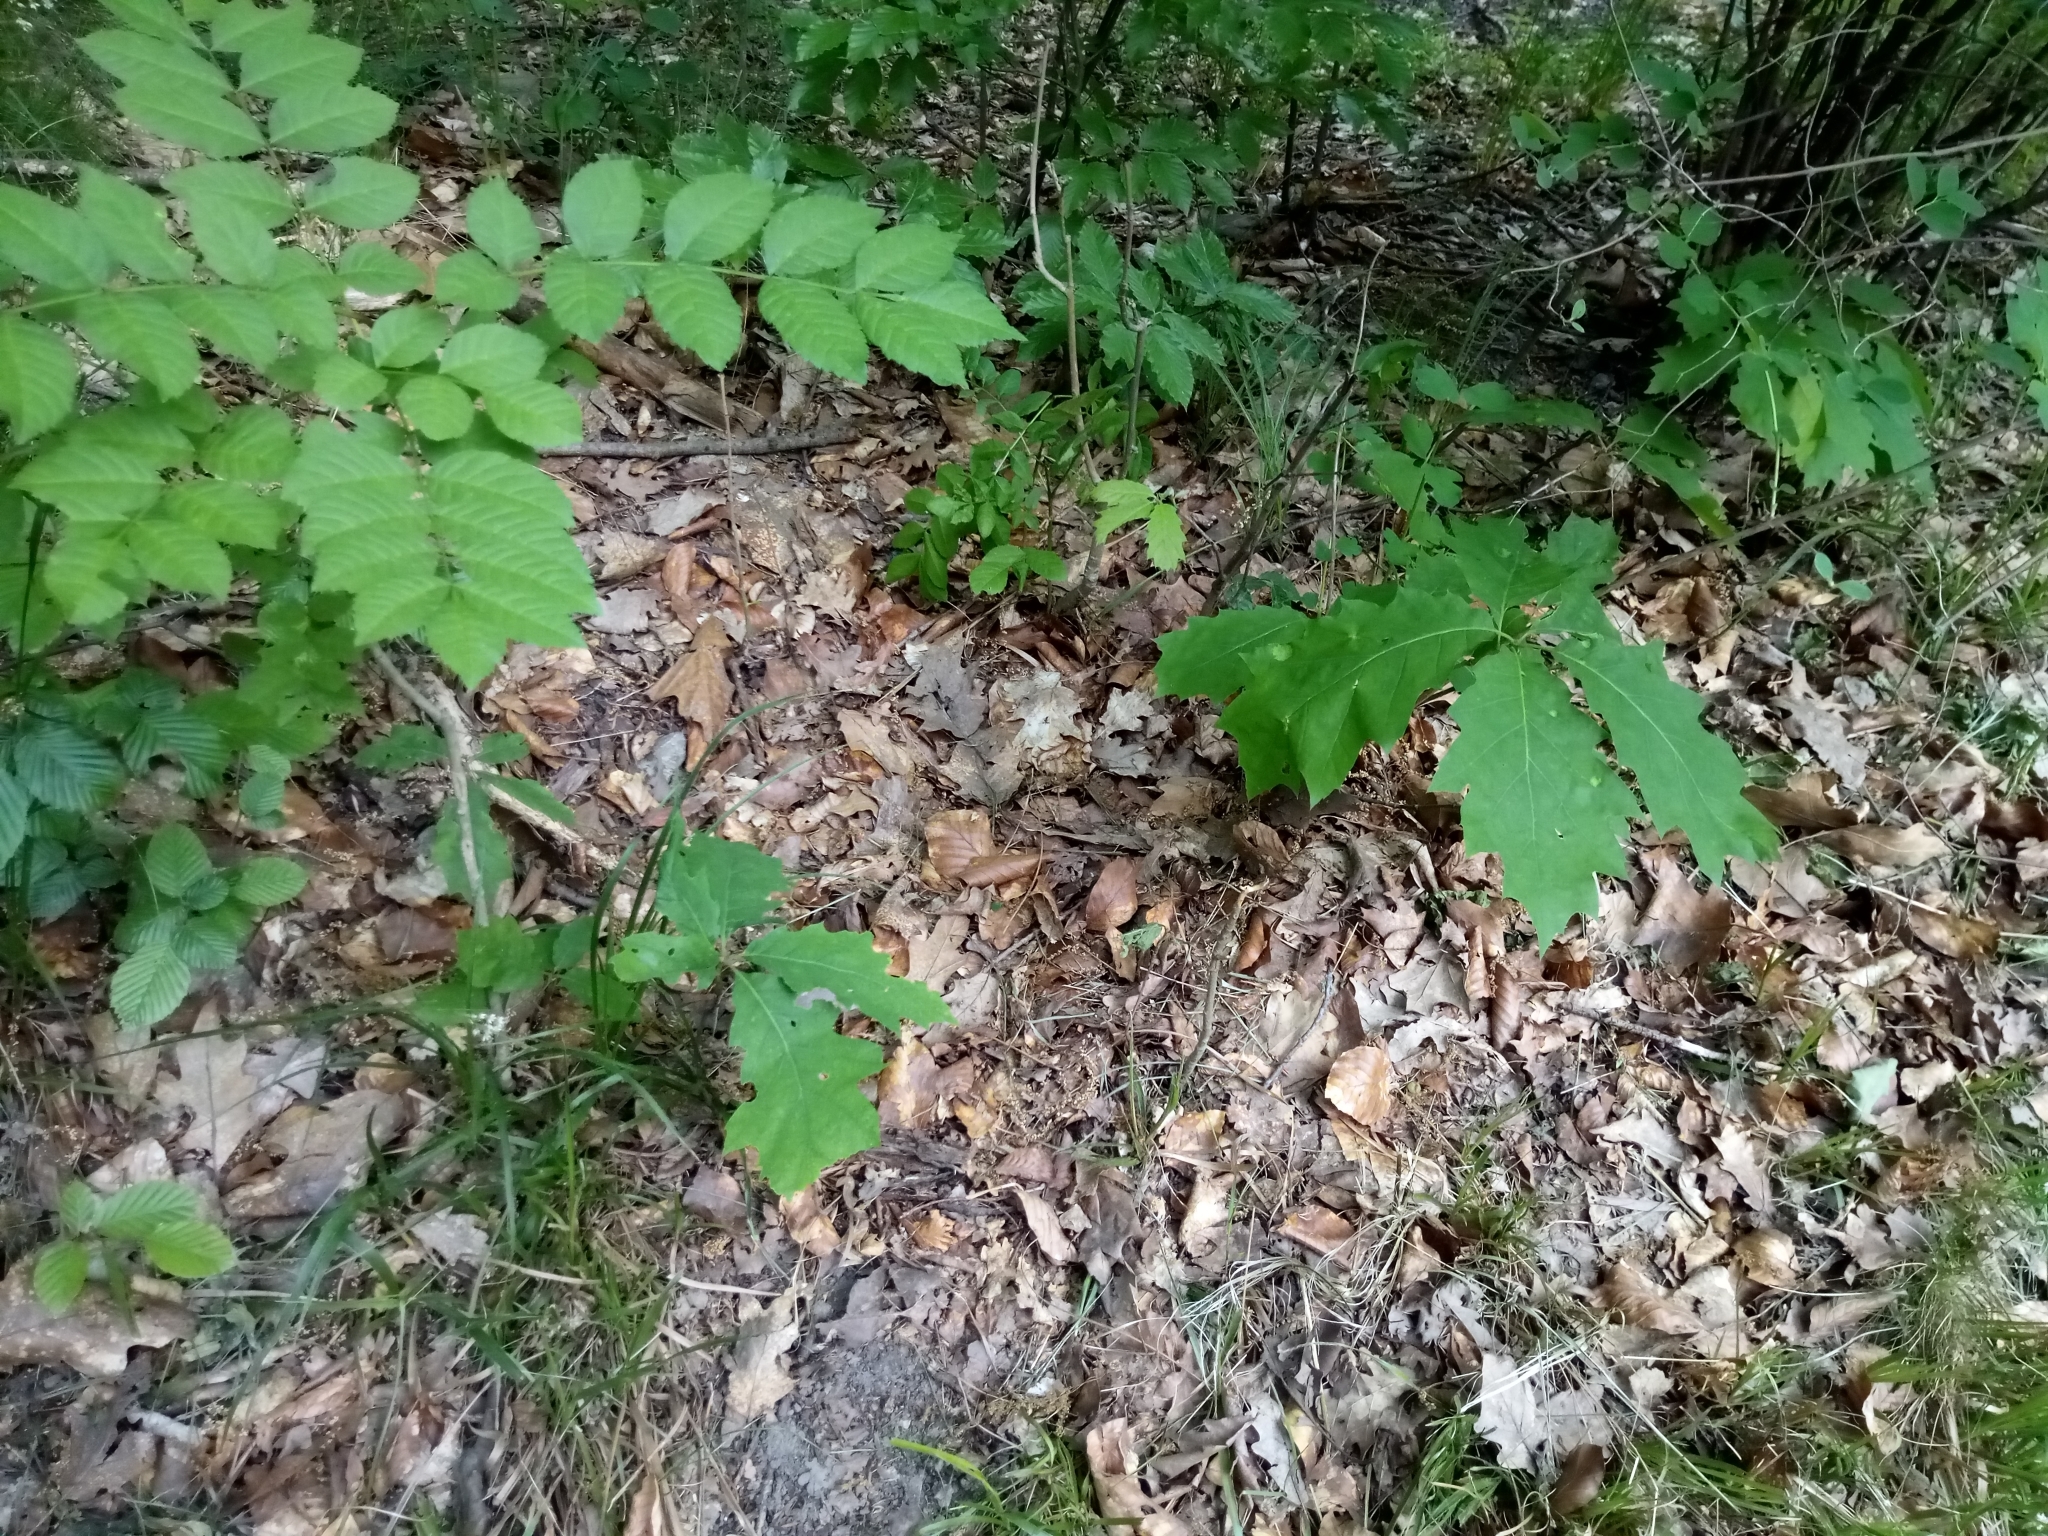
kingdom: Plantae
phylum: Tracheophyta
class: Magnoliopsida
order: Fagales
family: Fagaceae
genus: Quercus
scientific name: Quercus rubra
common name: Red oak
